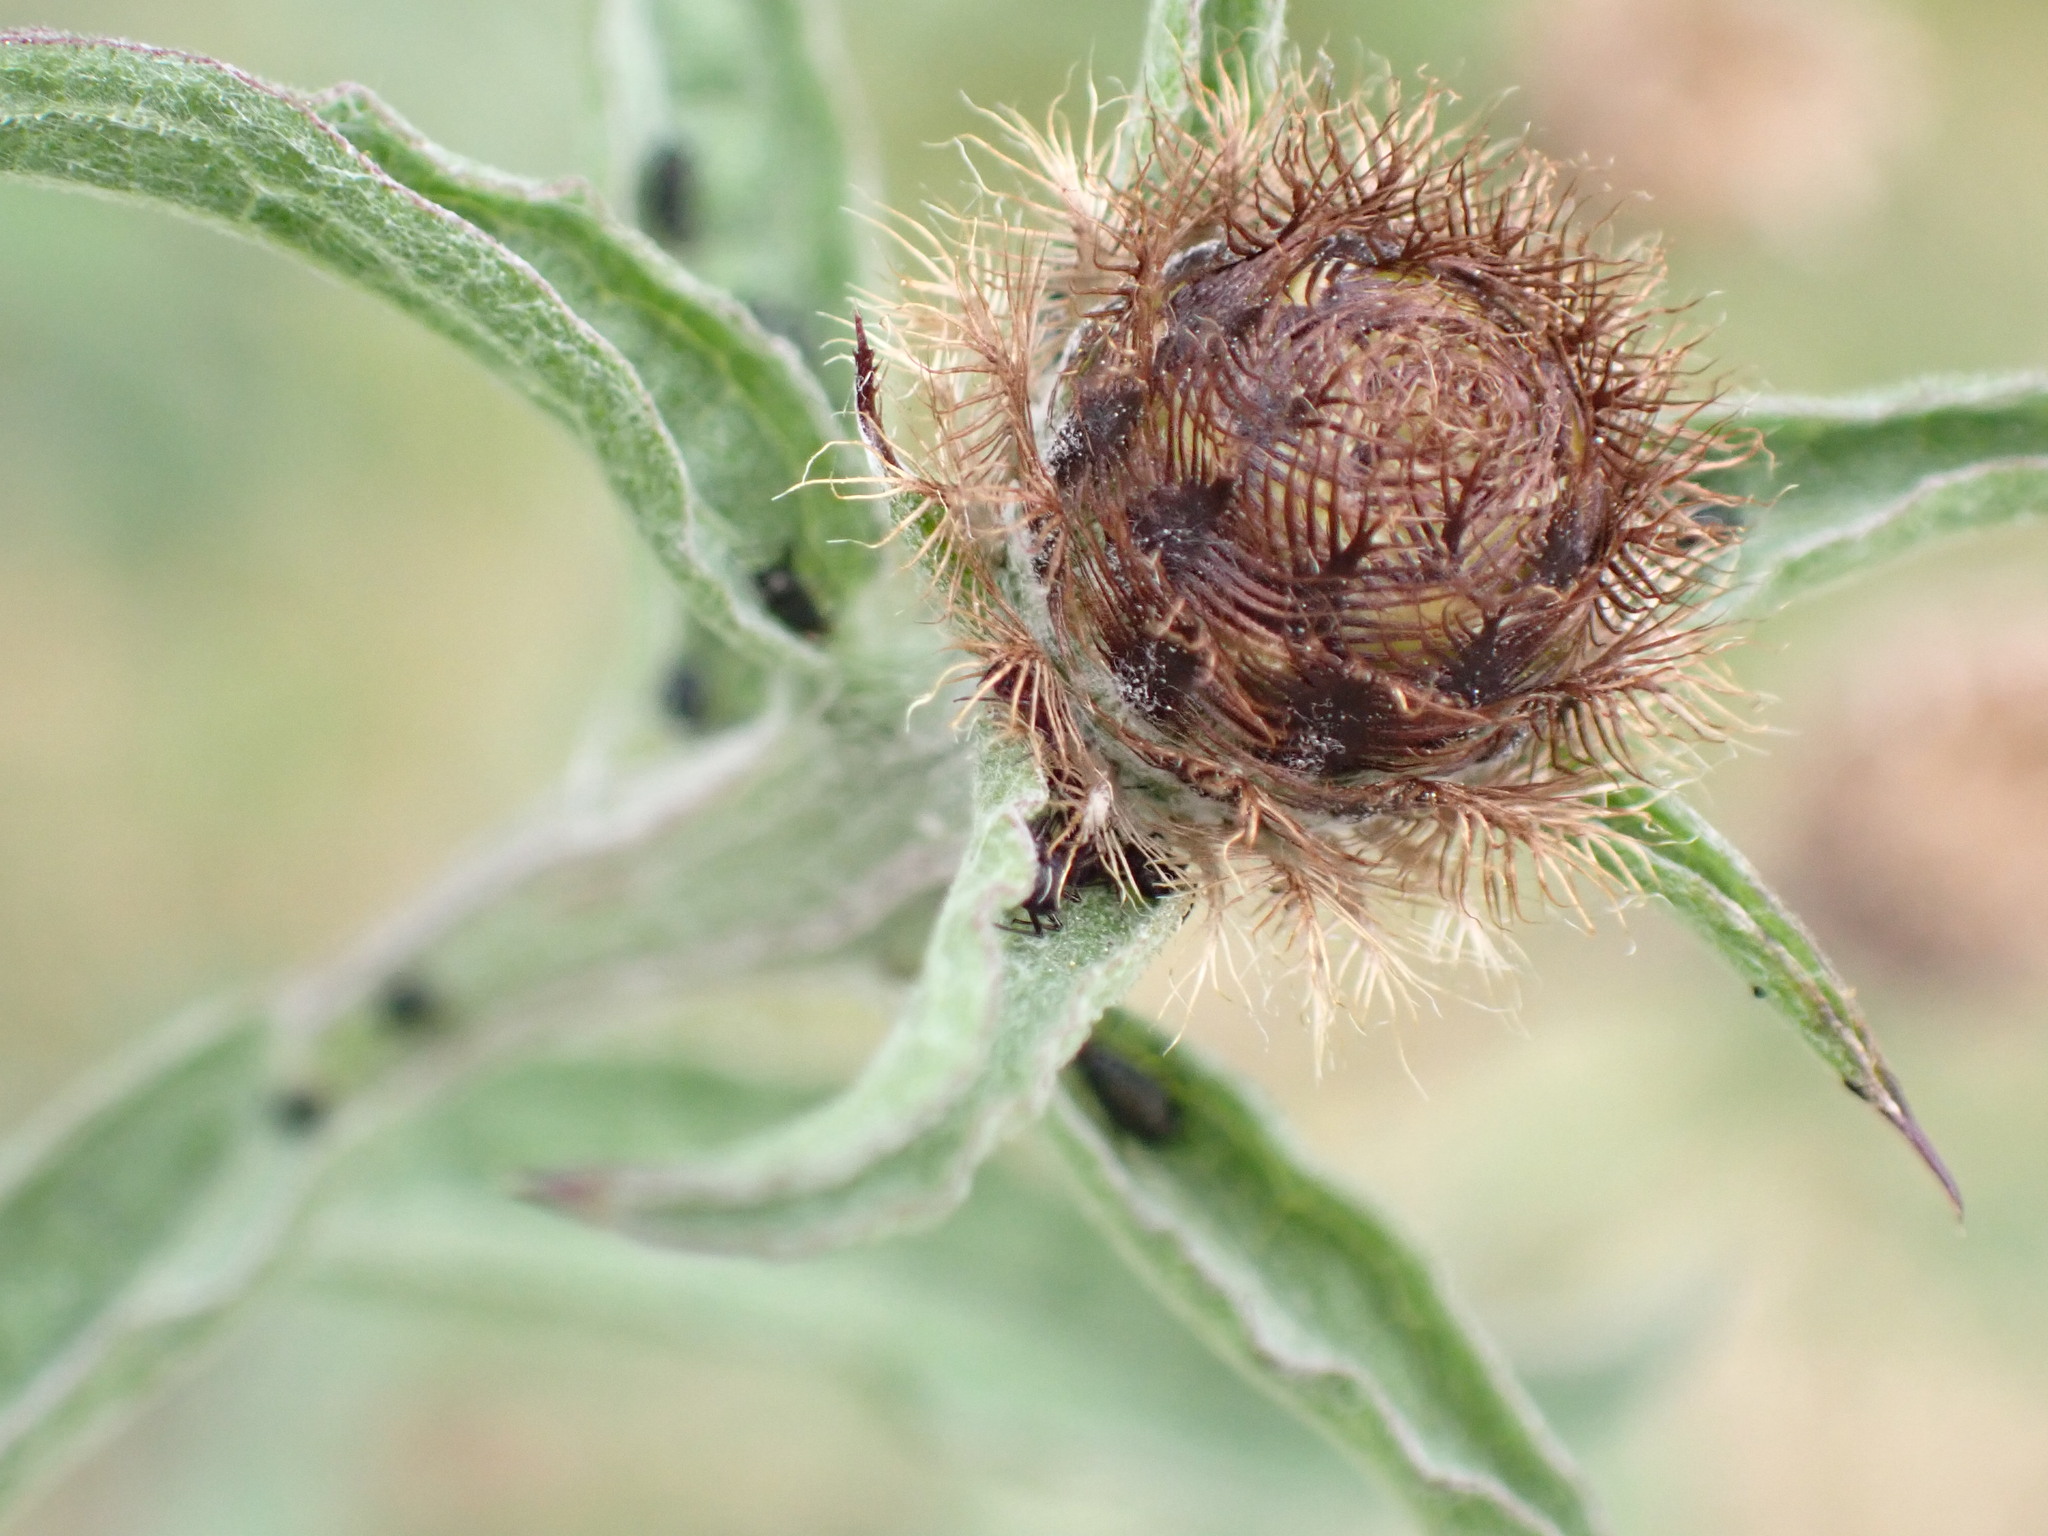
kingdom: Plantae
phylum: Tracheophyta
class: Magnoliopsida
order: Asterales
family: Asteraceae
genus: Centaurea
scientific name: Centaurea nigra
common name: Lesser knapweed
